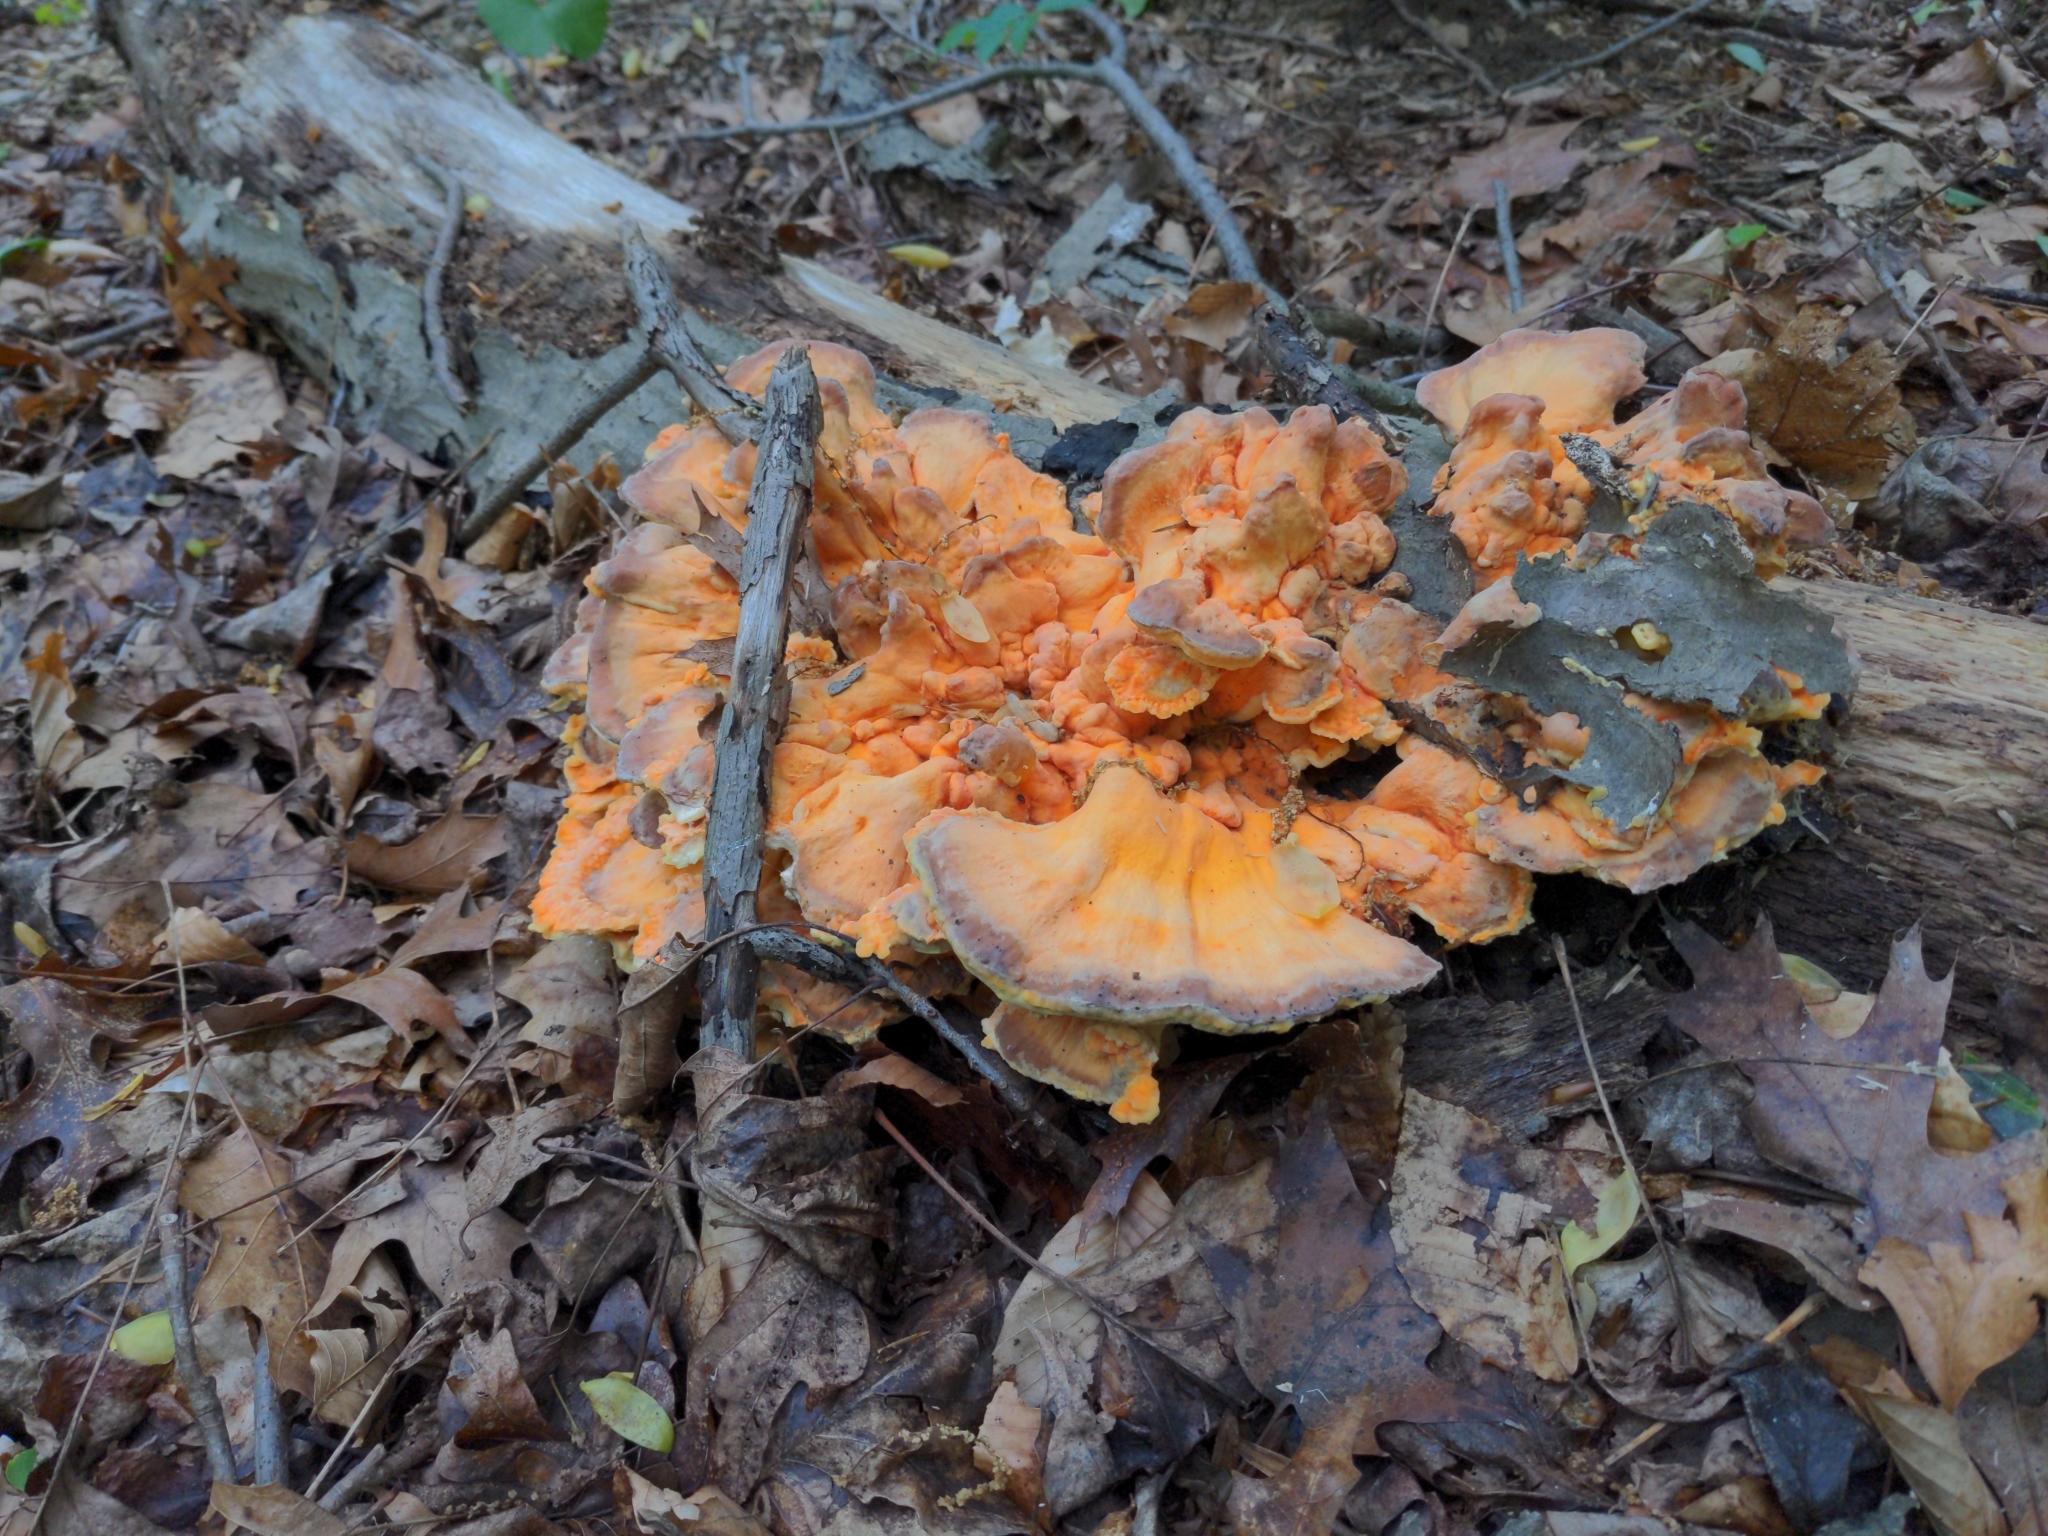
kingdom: Fungi
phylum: Basidiomycota
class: Agaricomycetes
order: Polyporales
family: Laetiporaceae
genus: Laetiporus
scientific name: Laetiporus sulphureus
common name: Chicken of the woods
